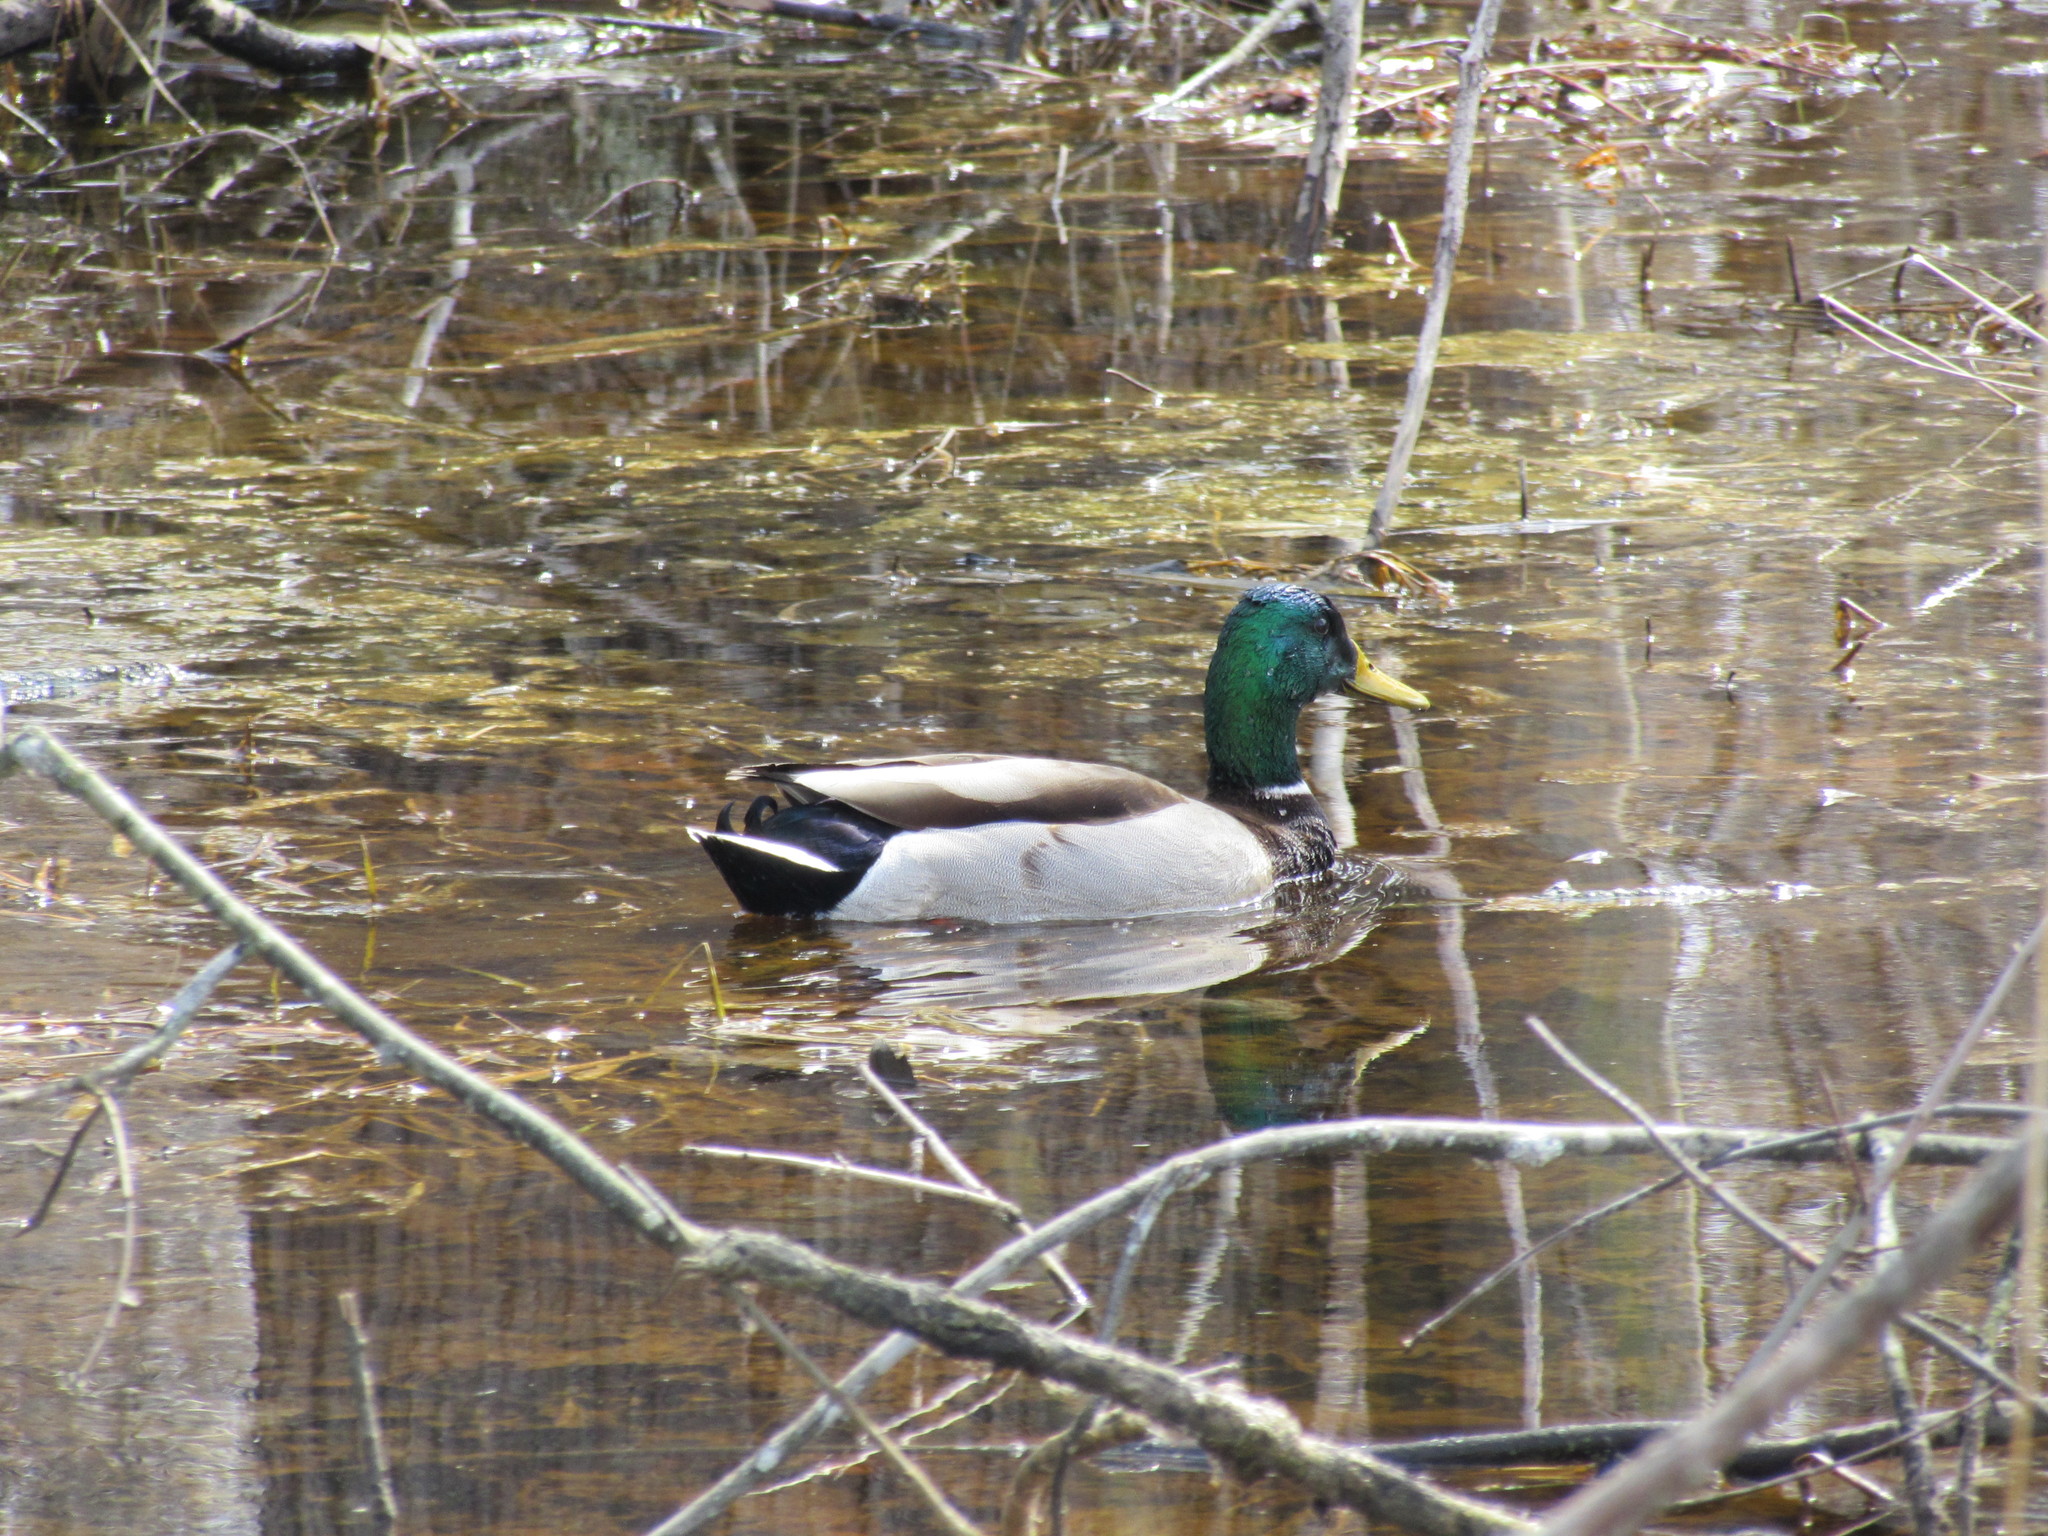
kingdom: Animalia
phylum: Chordata
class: Aves
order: Anseriformes
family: Anatidae
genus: Anas
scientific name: Anas platyrhynchos
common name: Mallard
